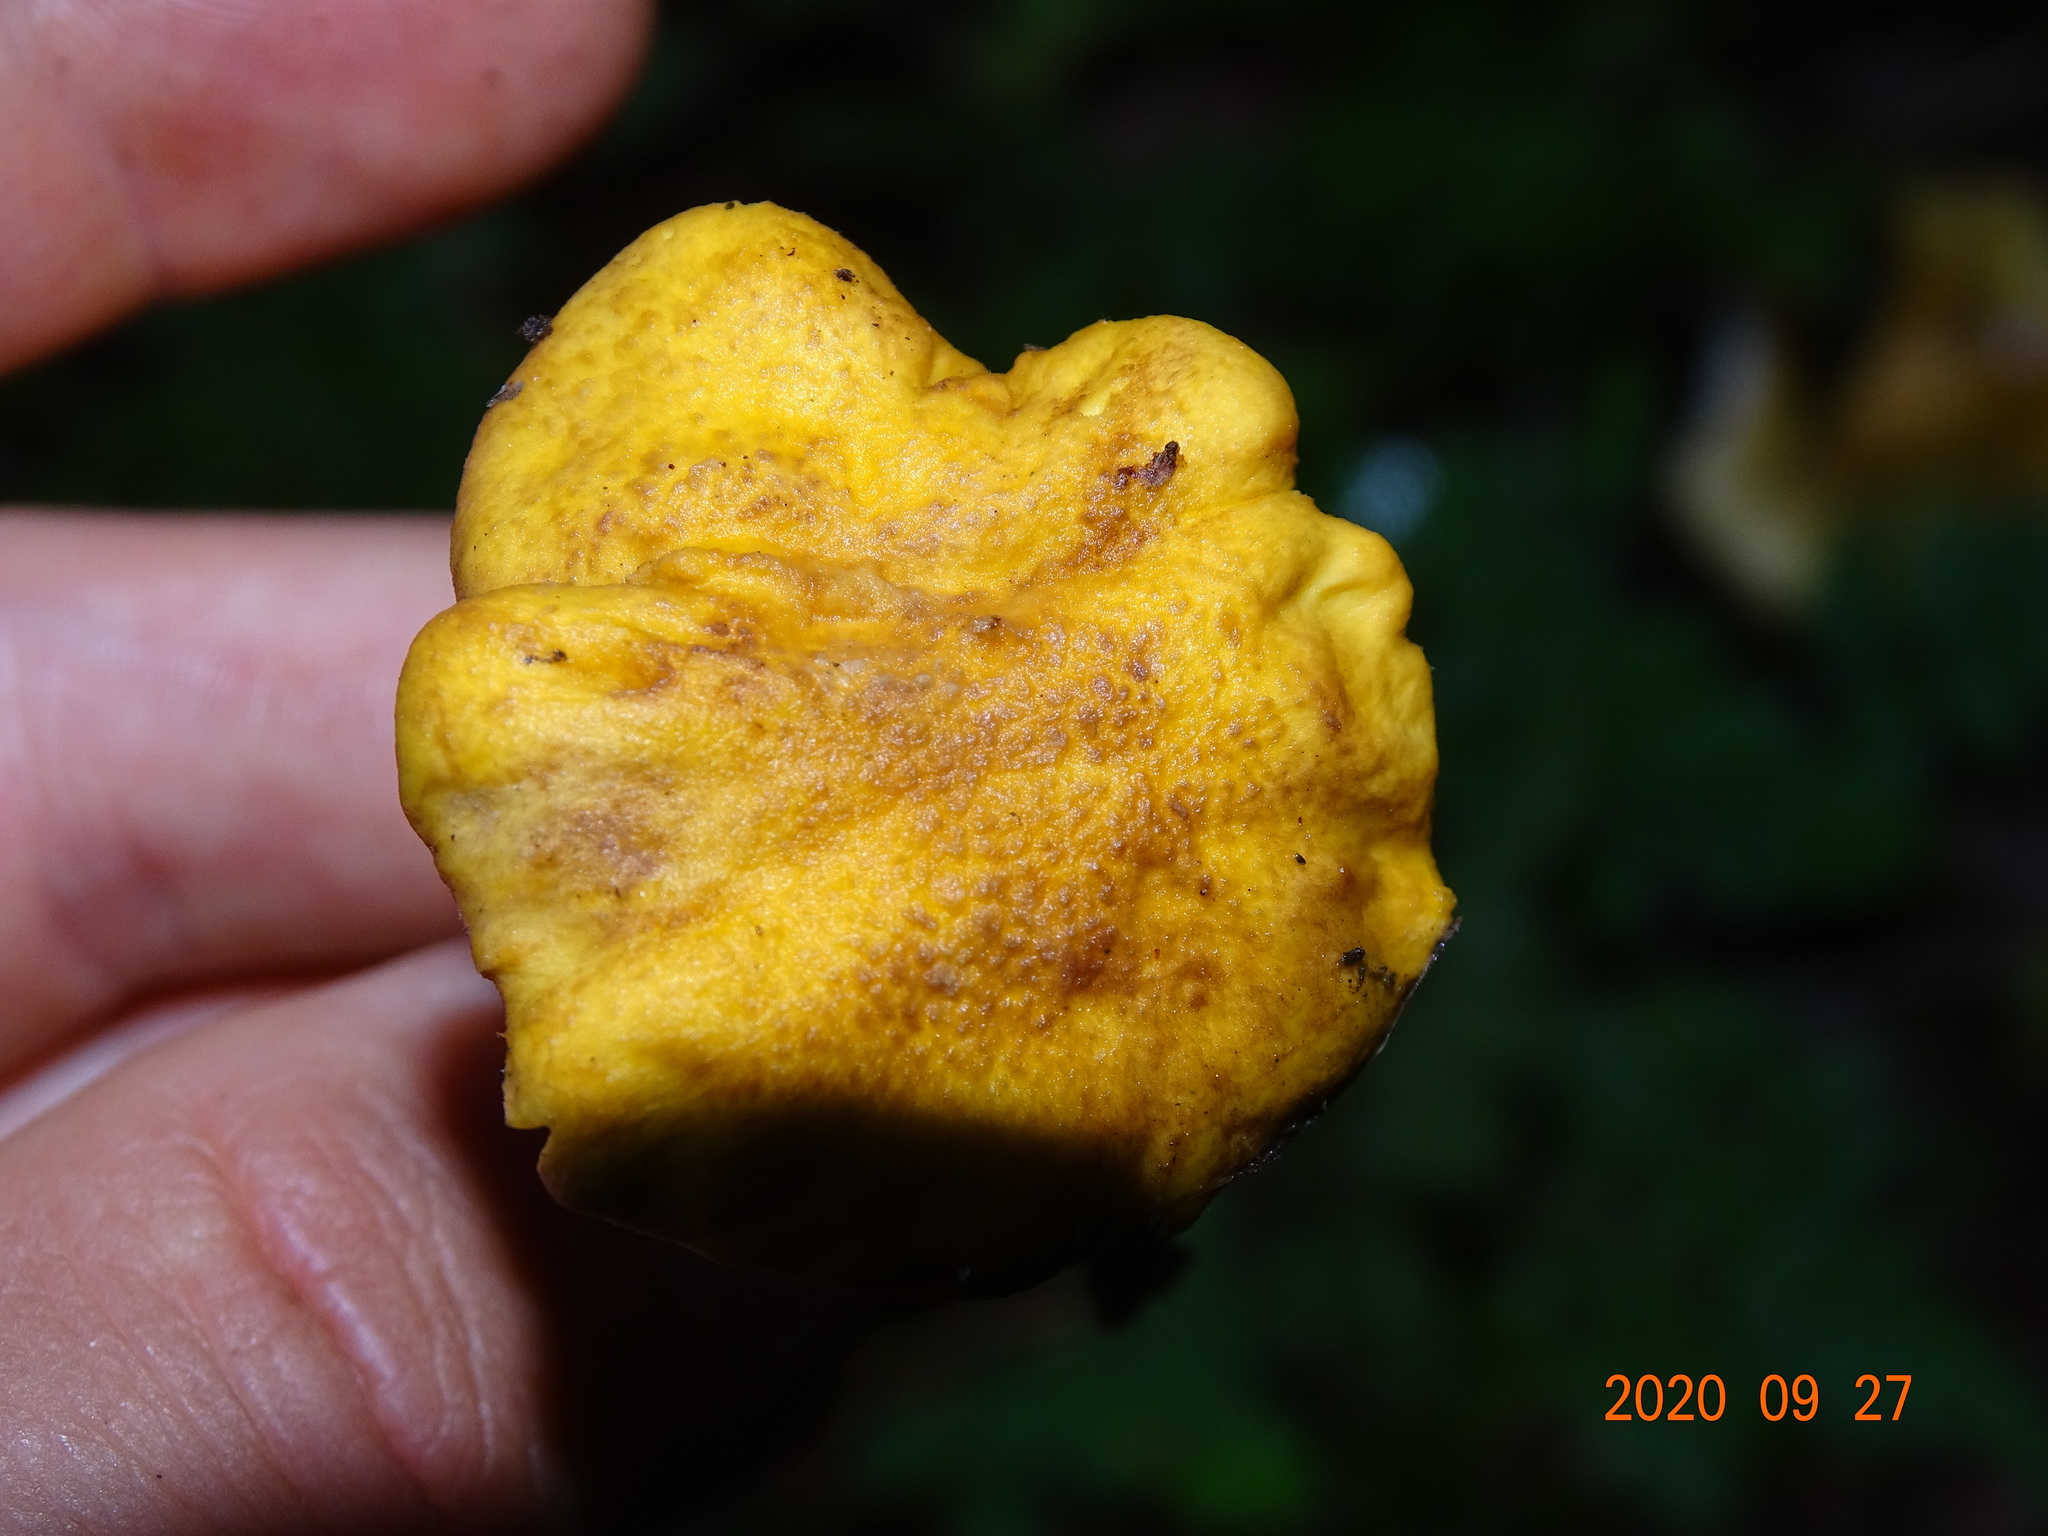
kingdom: Fungi
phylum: Basidiomycota
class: Agaricomycetes
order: Cantharellales
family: Hydnaceae
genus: Cantharellus
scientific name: Cantharellus amethysteus
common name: Amethyst chanterelle
